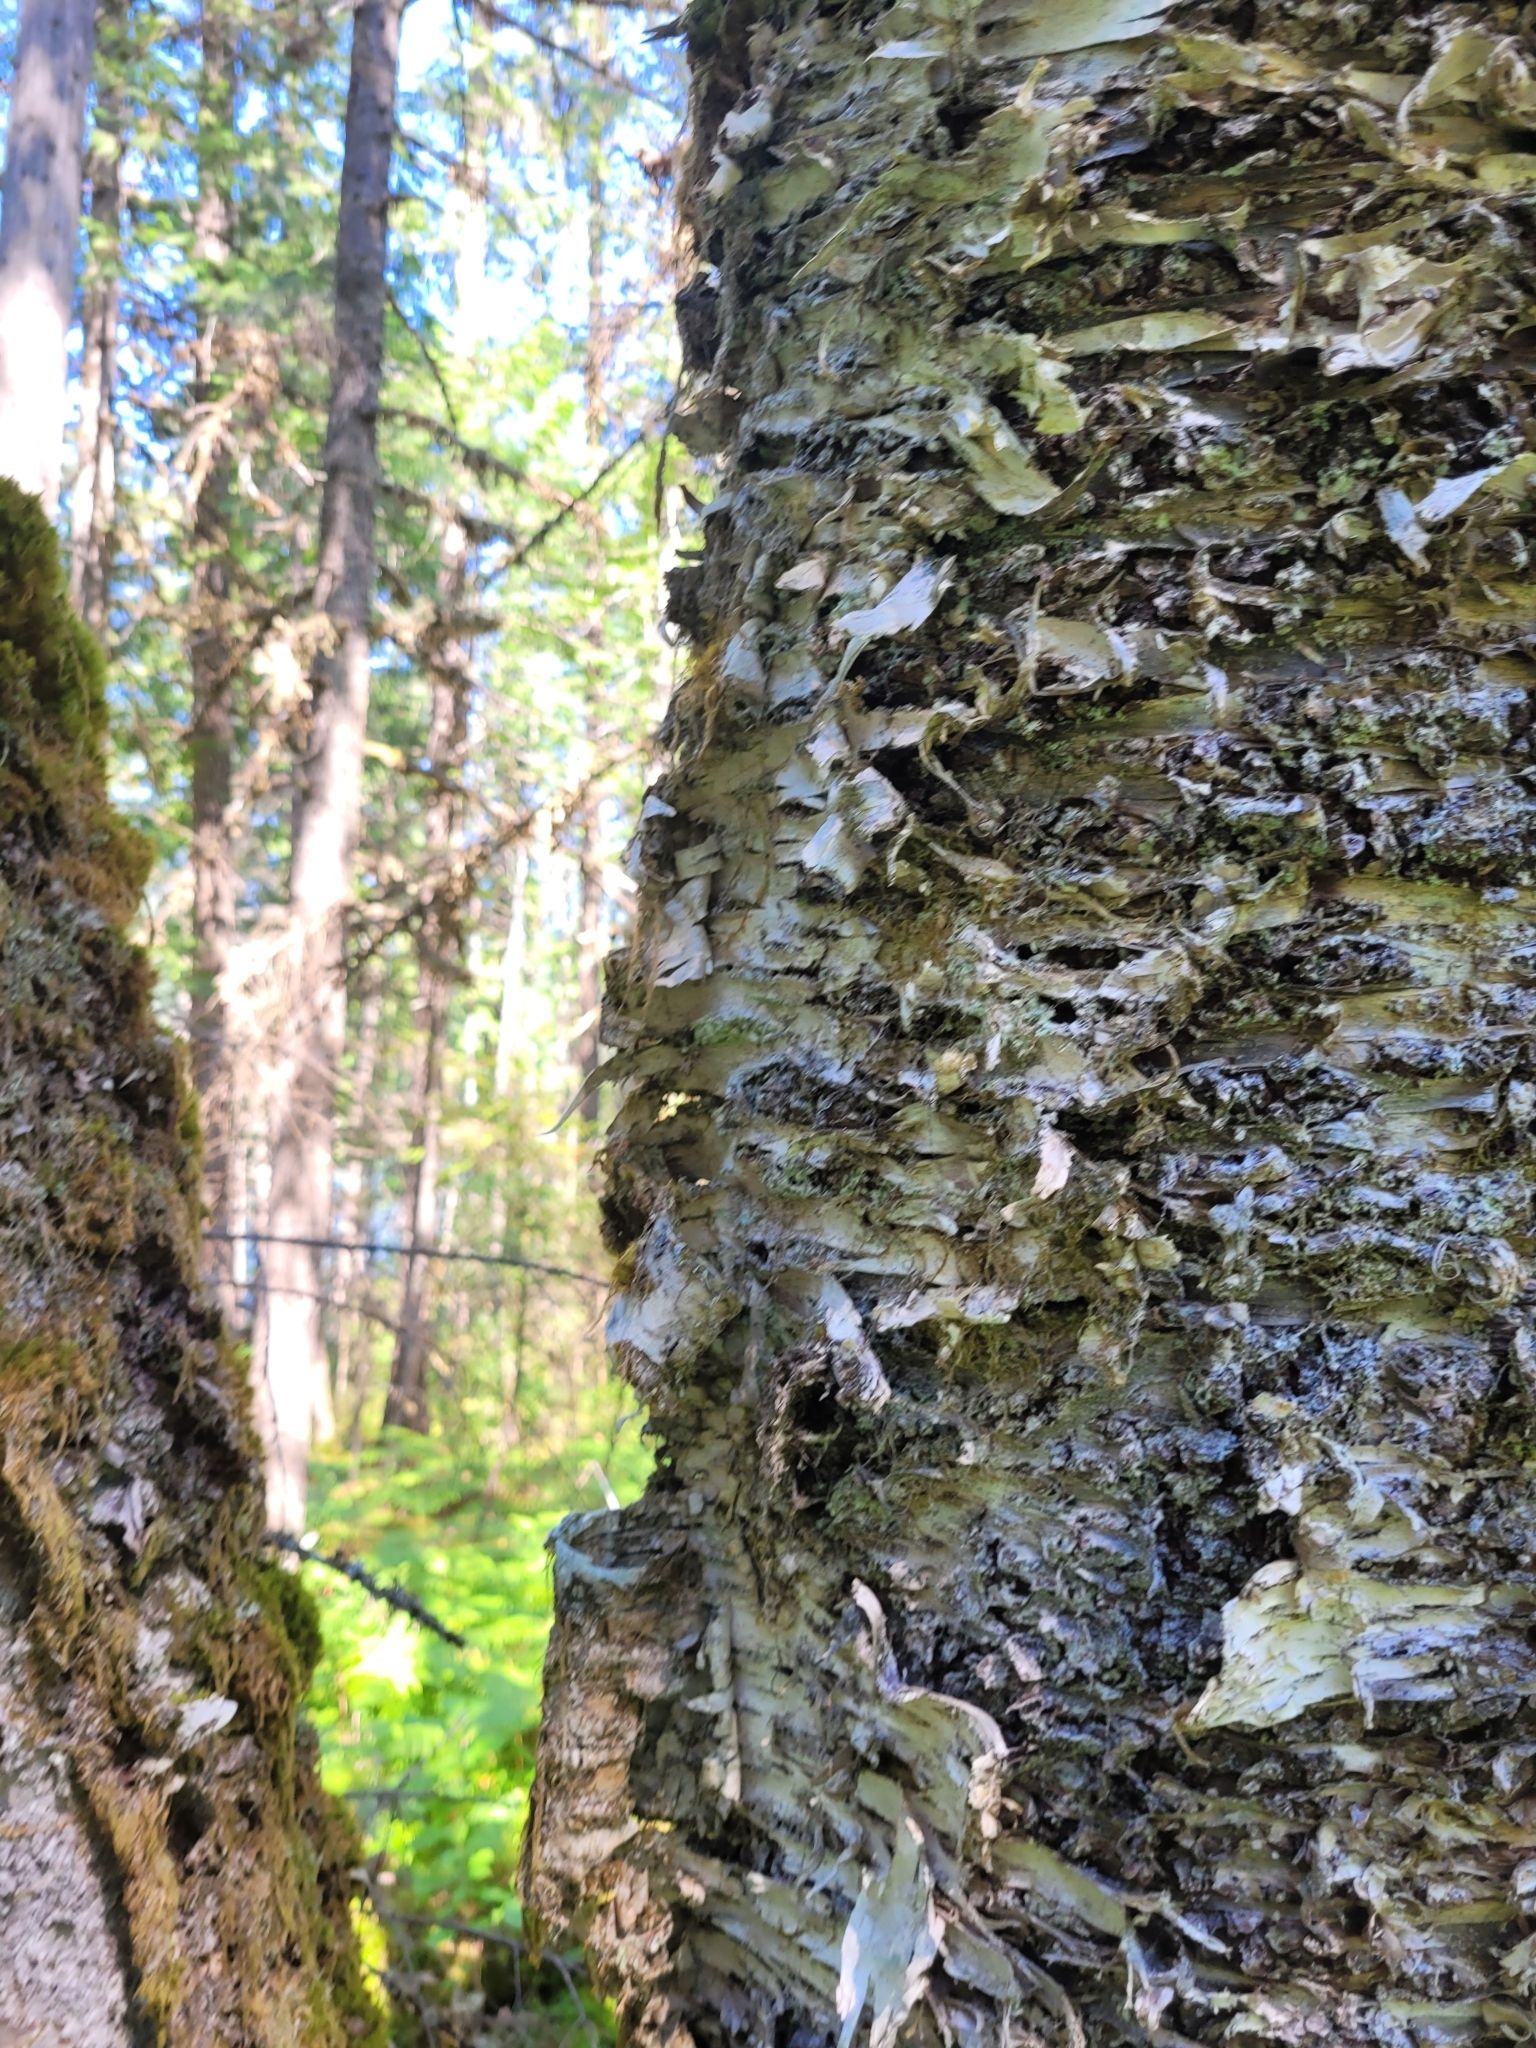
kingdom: Plantae
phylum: Tracheophyta
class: Magnoliopsida
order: Fagales
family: Betulaceae
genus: Betula
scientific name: Betula papyrifera
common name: Paper birch
